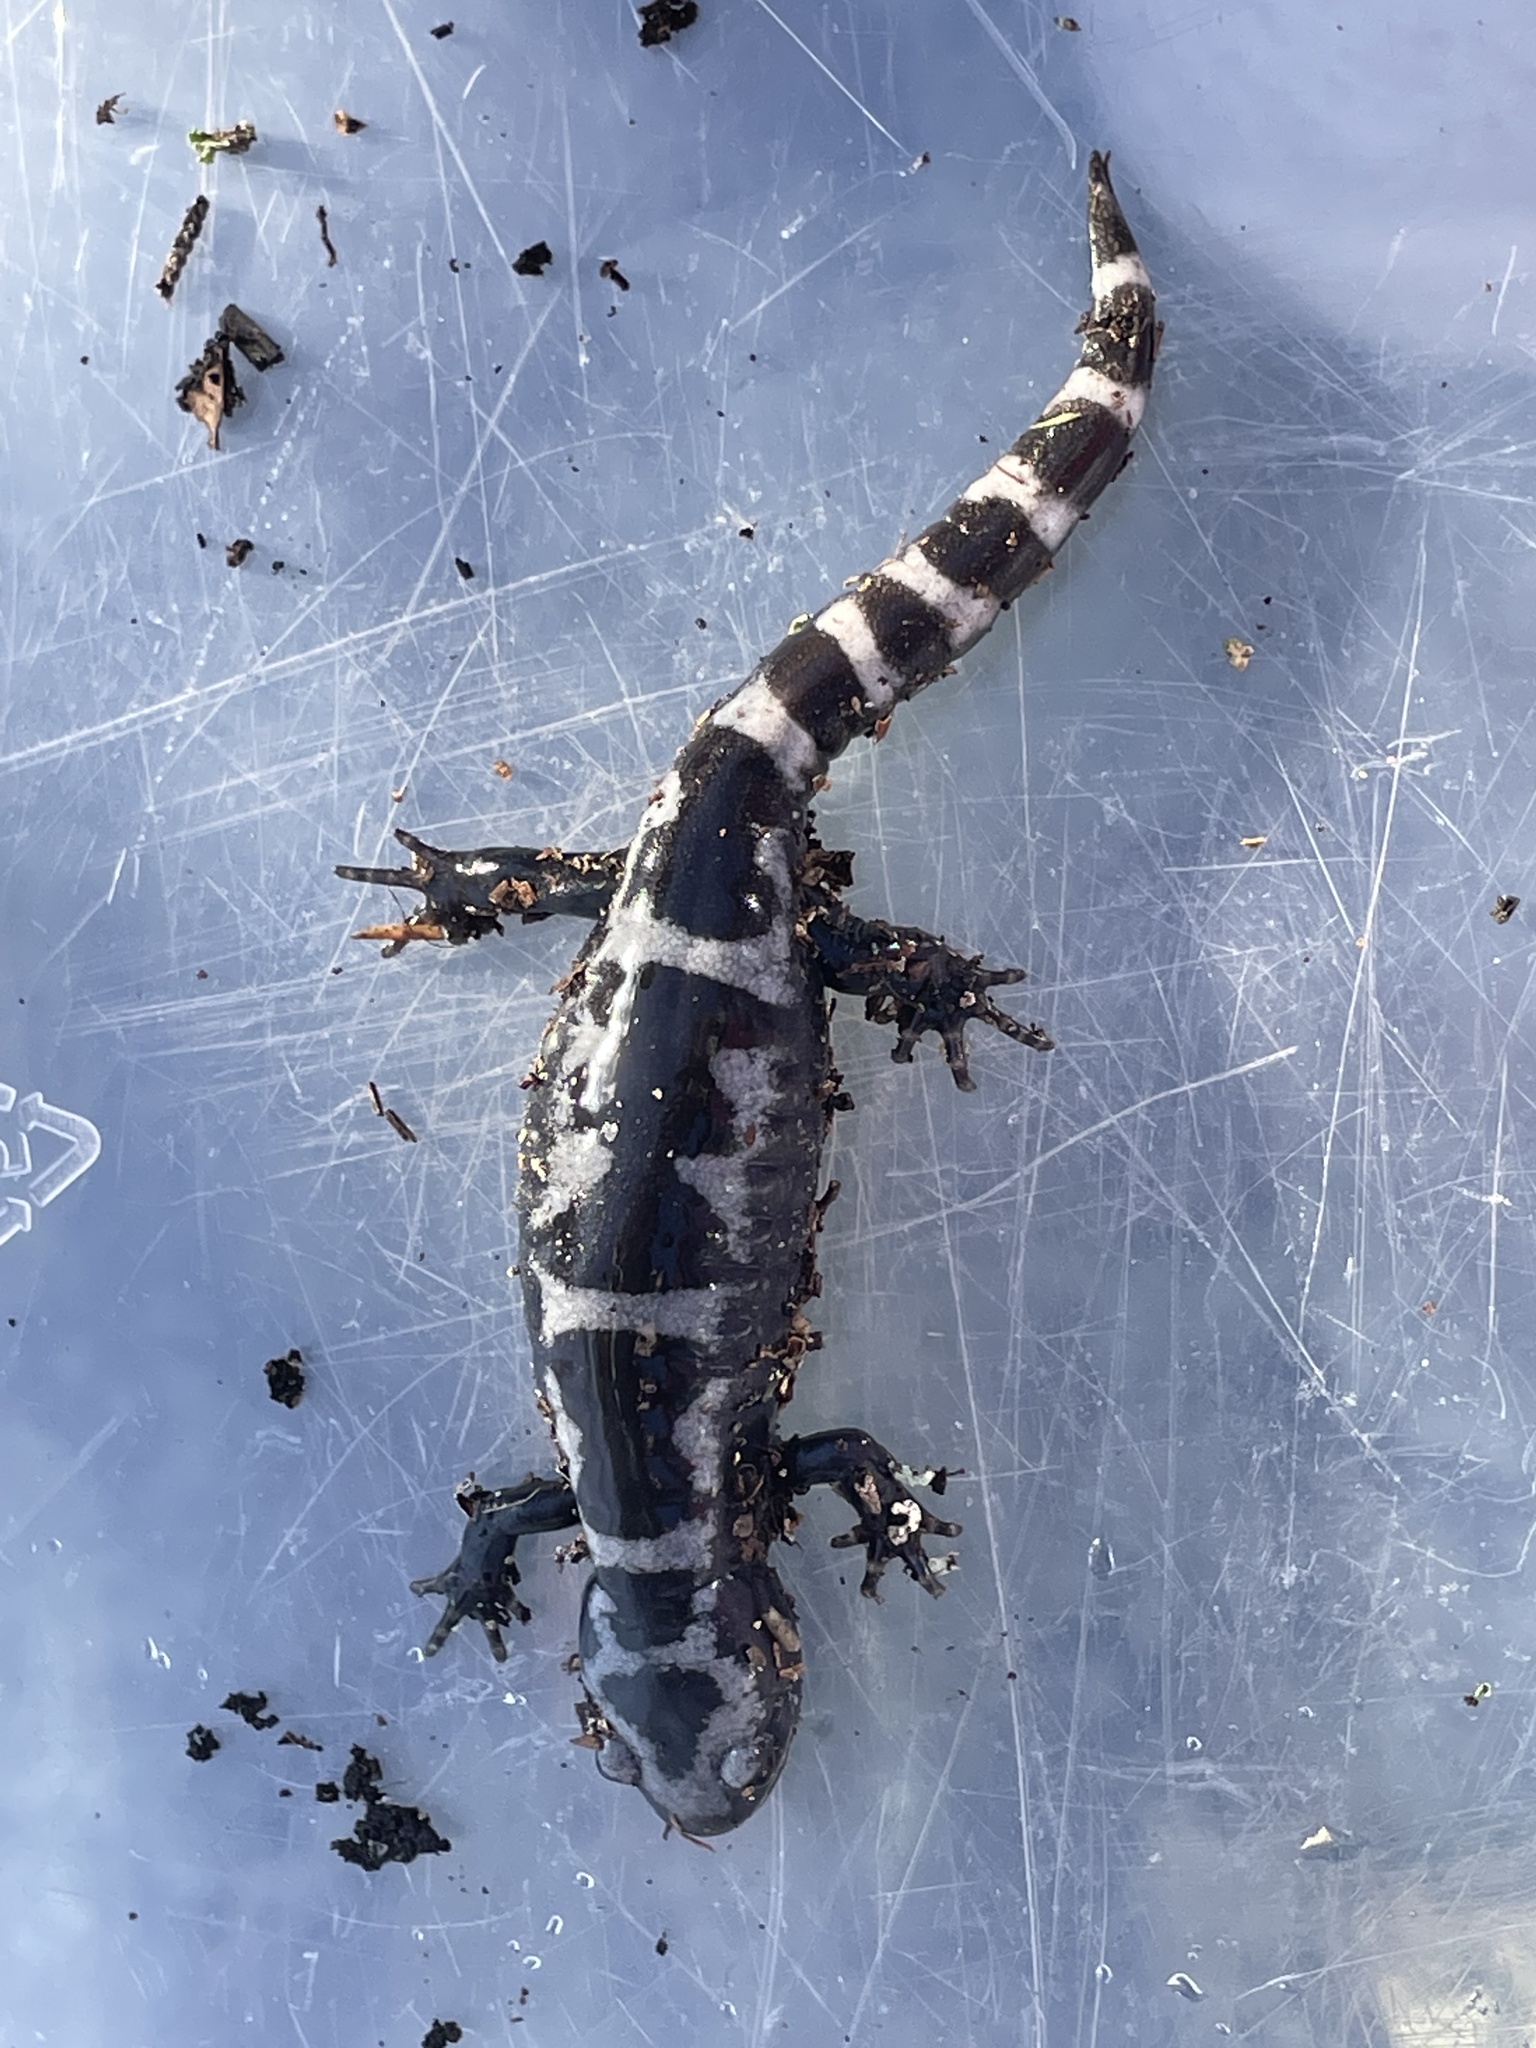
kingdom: Animalia
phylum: Chordata
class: Amphibia
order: Caudata
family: Ambystomatidae
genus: Ambystoma
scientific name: Ambystoma opacum
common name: Marbled salamander
